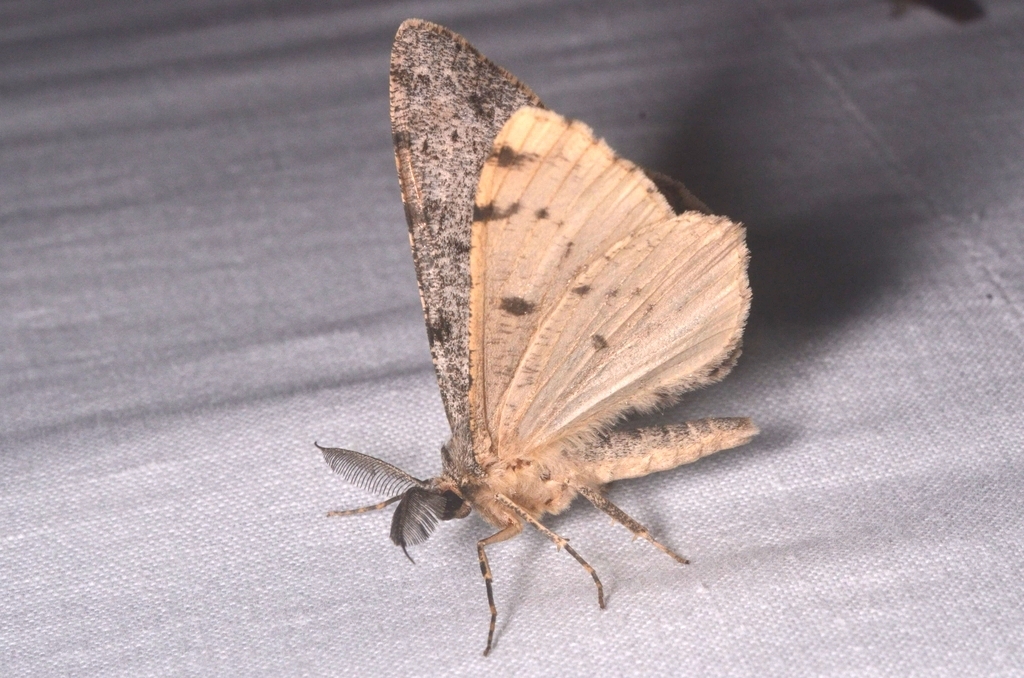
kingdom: Animalia
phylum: Arthropoda
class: Insecta
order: Lepidoptera
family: Geometridae
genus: Hypomecis
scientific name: Hypomecis roboraria
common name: Great oak beauty
